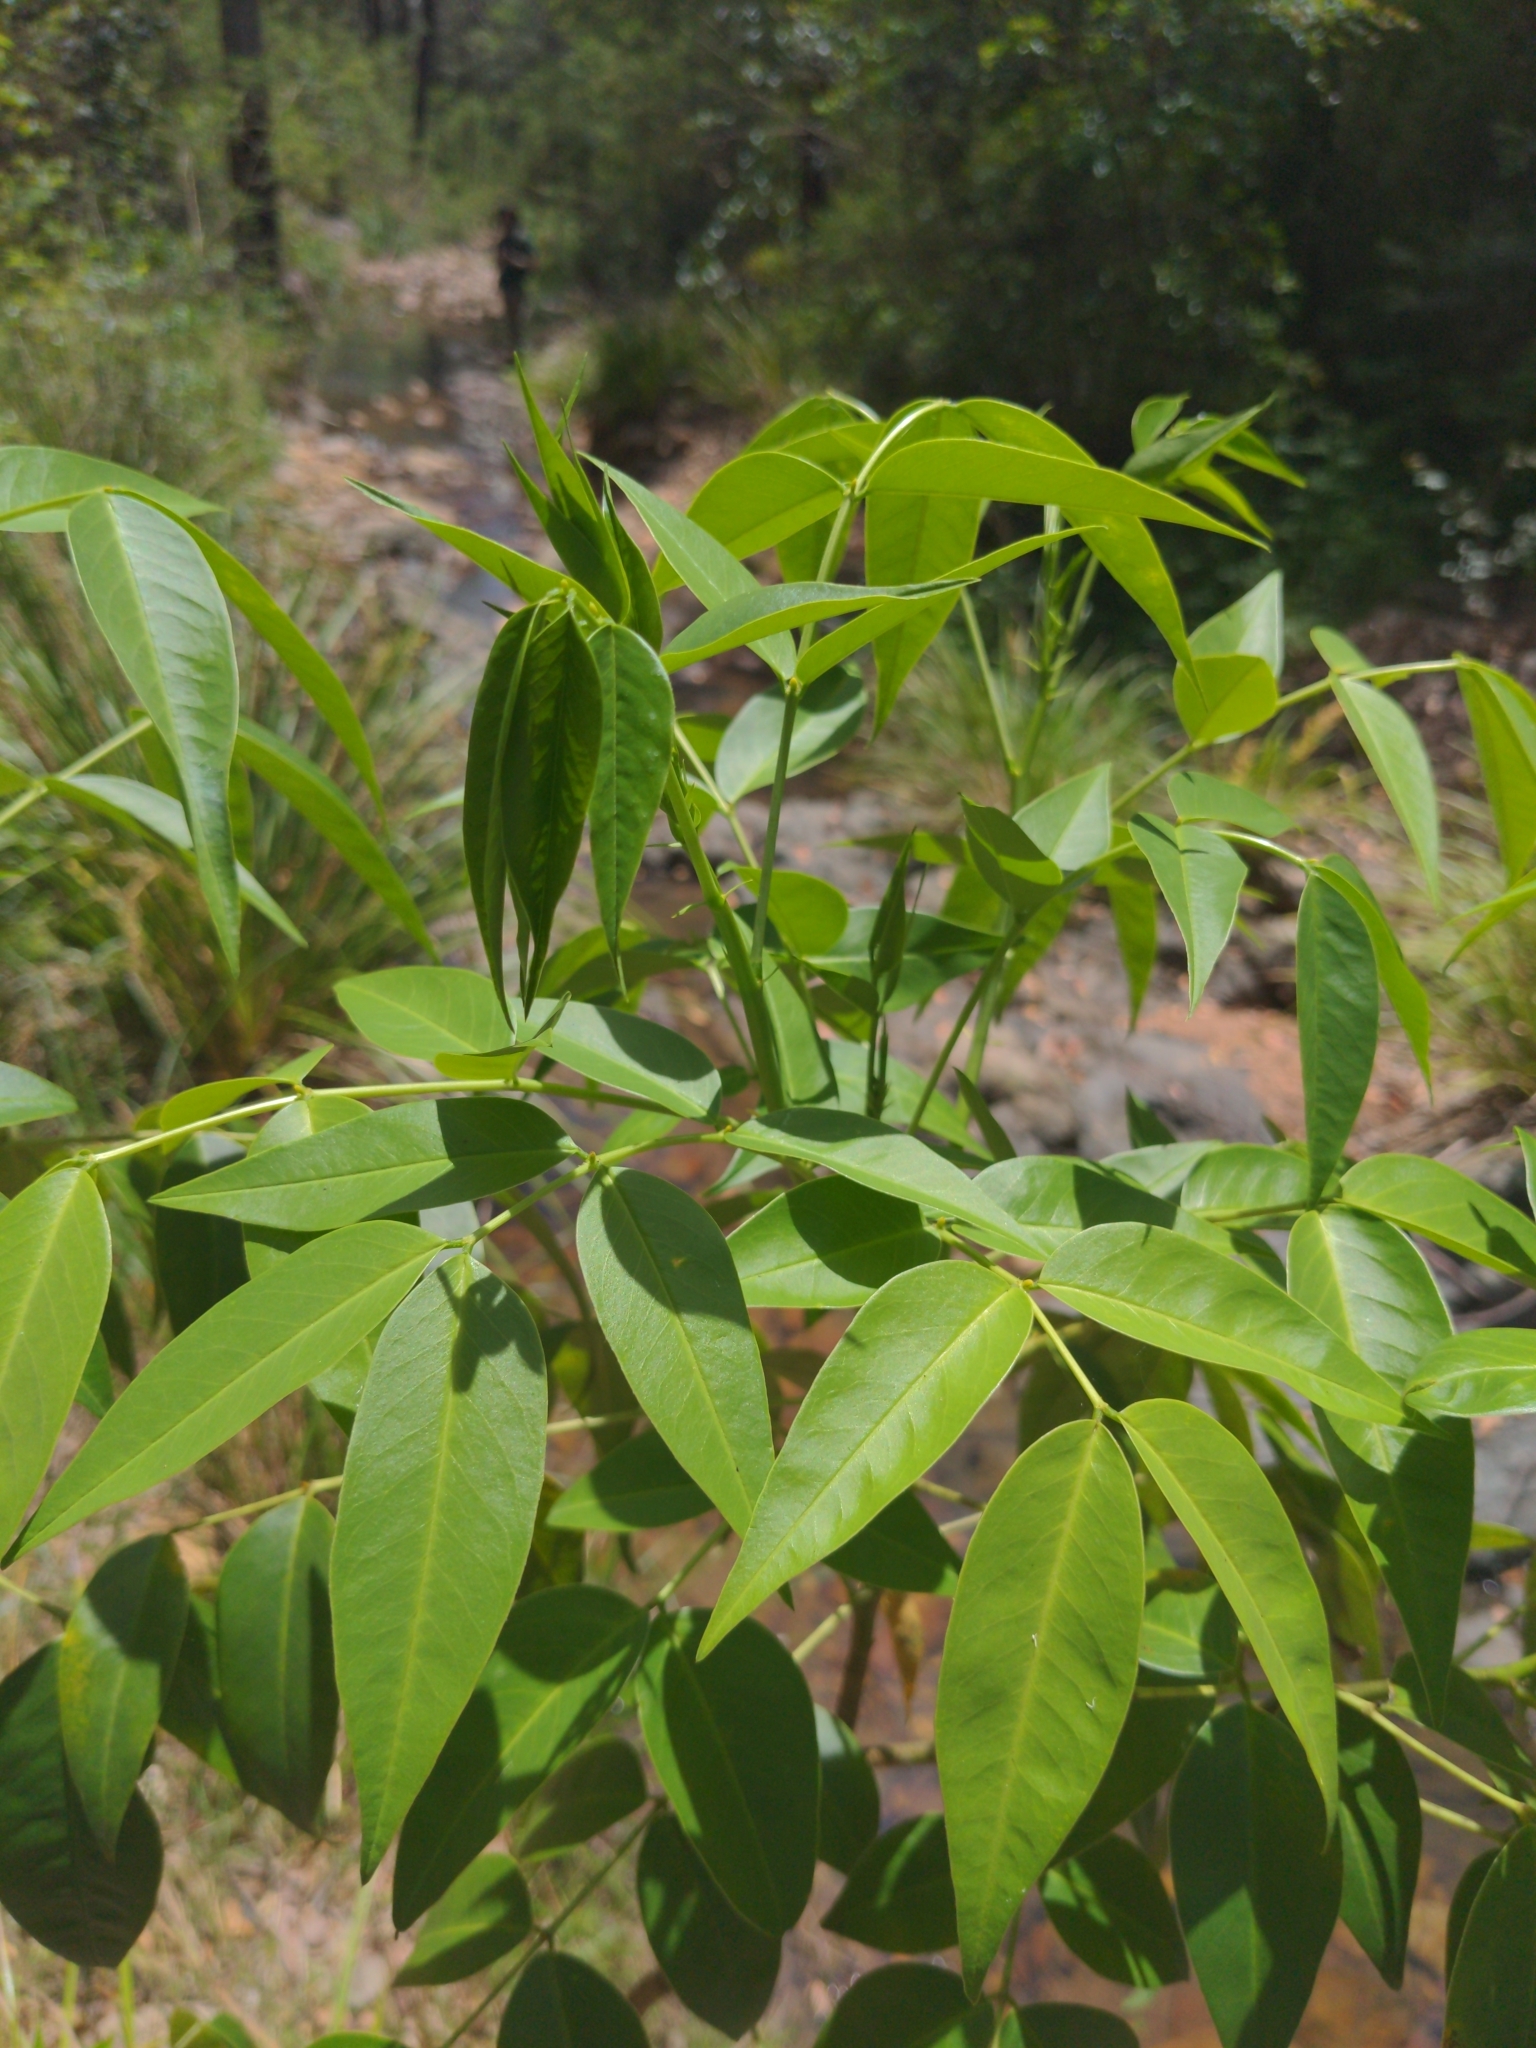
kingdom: Plantae
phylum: Tracheophyta
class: Magnoliopsida
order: Fabales
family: Fabaceae
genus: Senna
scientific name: Senna septemtrionalis
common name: Arsenic bush
